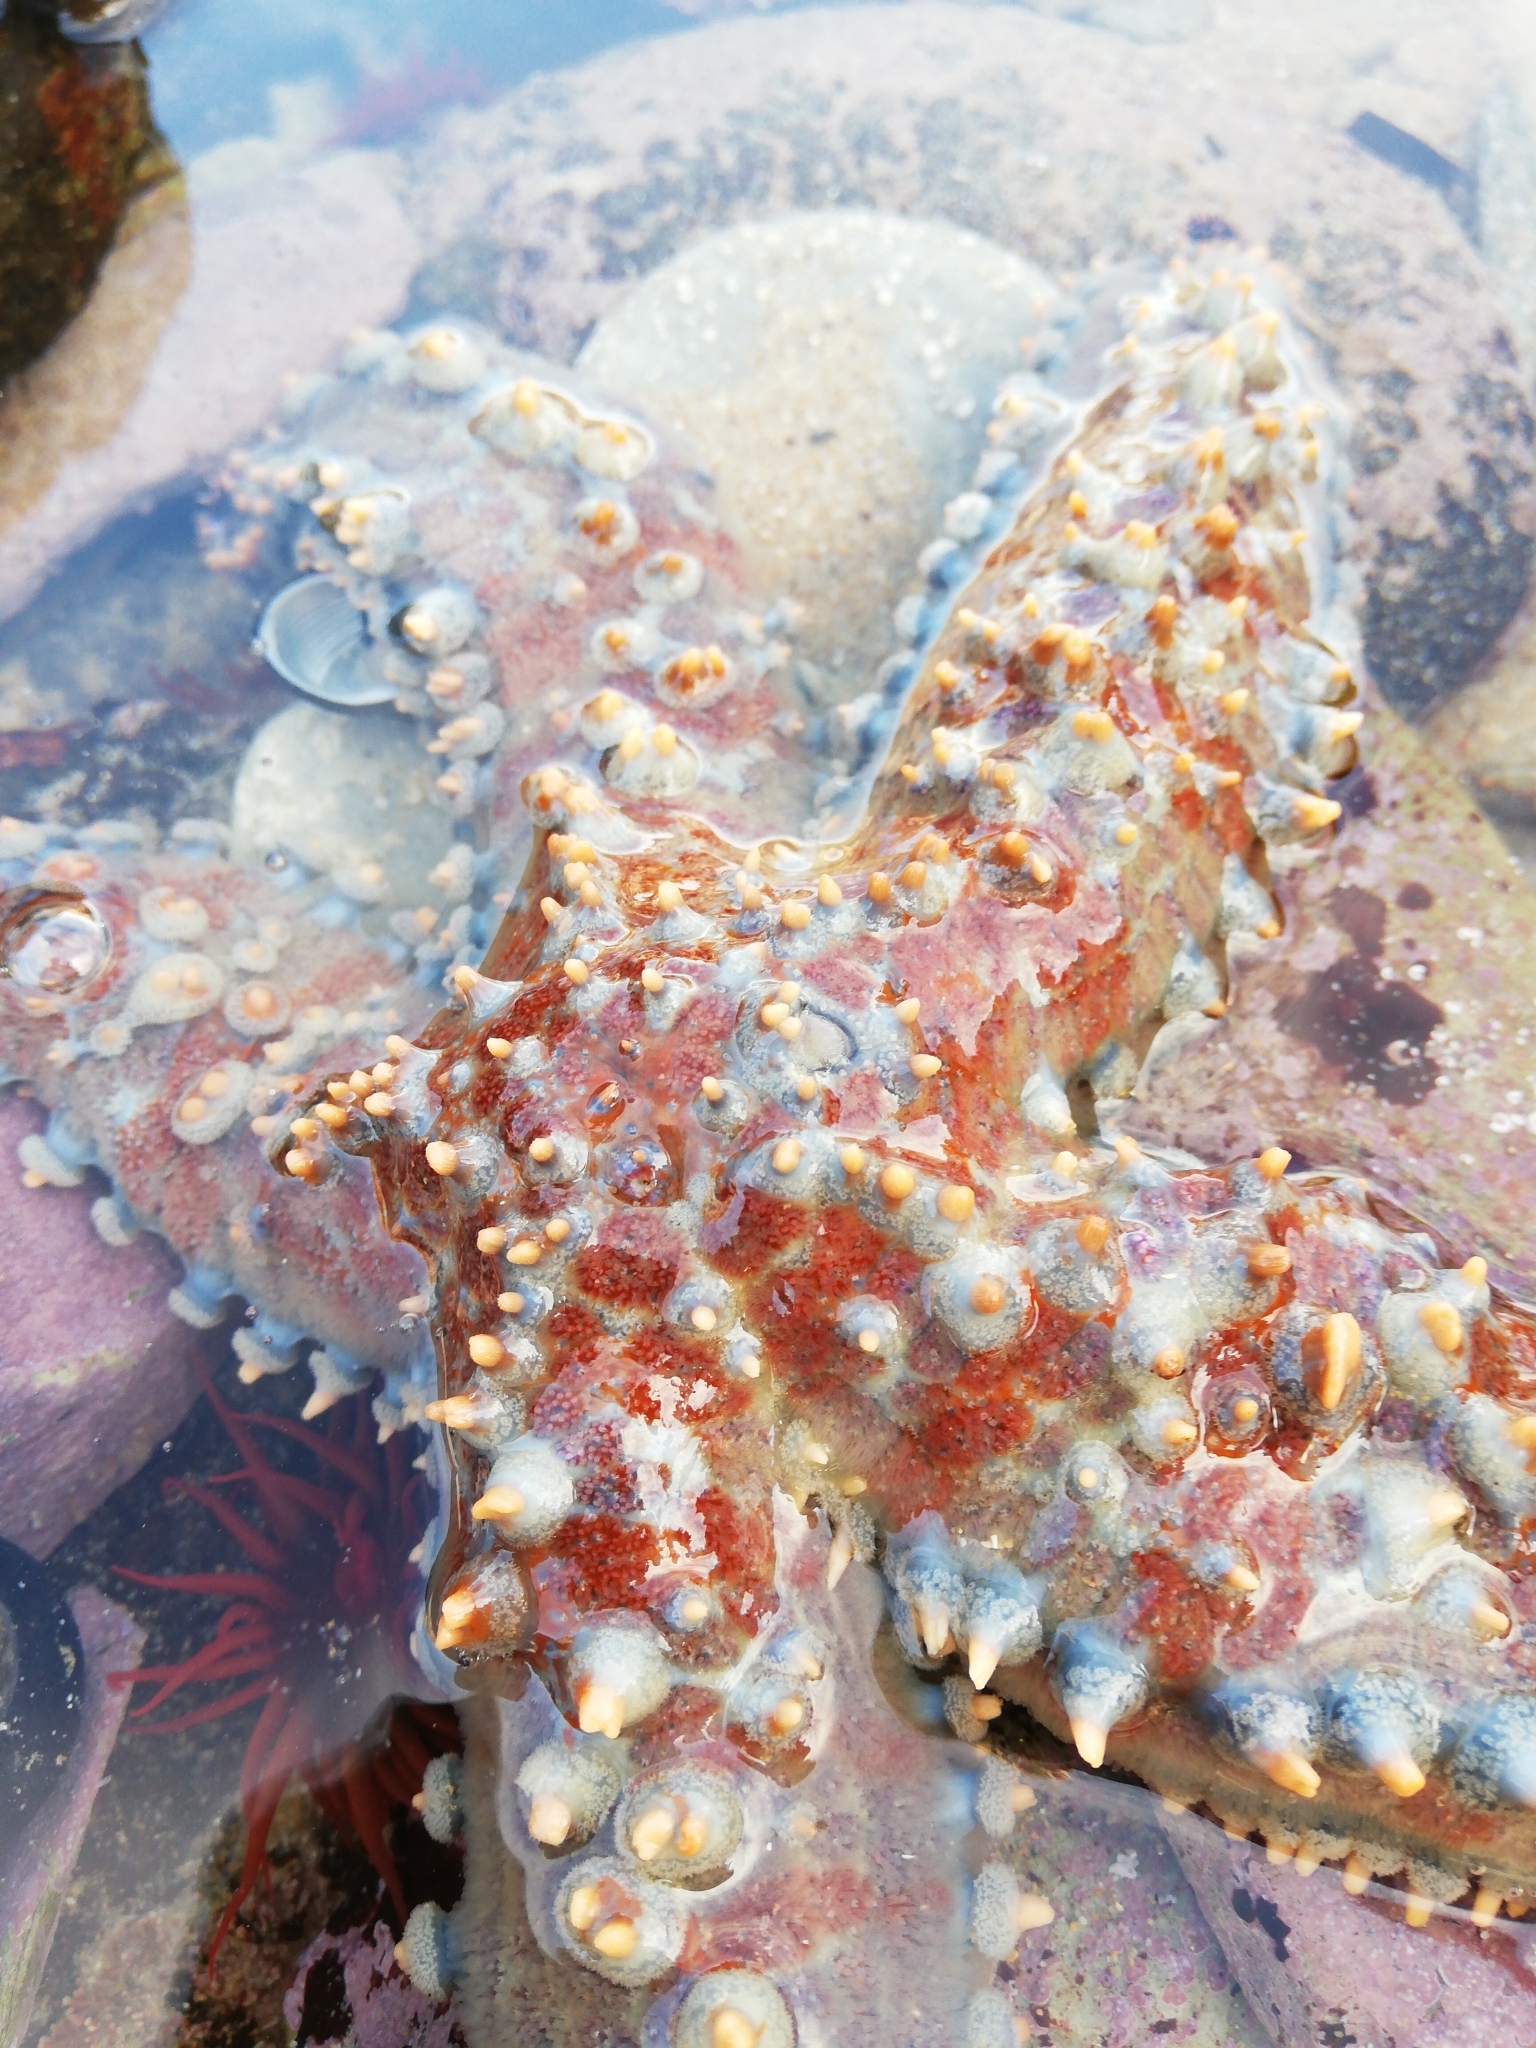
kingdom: Animalia
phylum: Echinodermata
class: Asteroidea
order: Forcipulatida
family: Asteriidae
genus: Marthasterias
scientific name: Marthasterias africana
